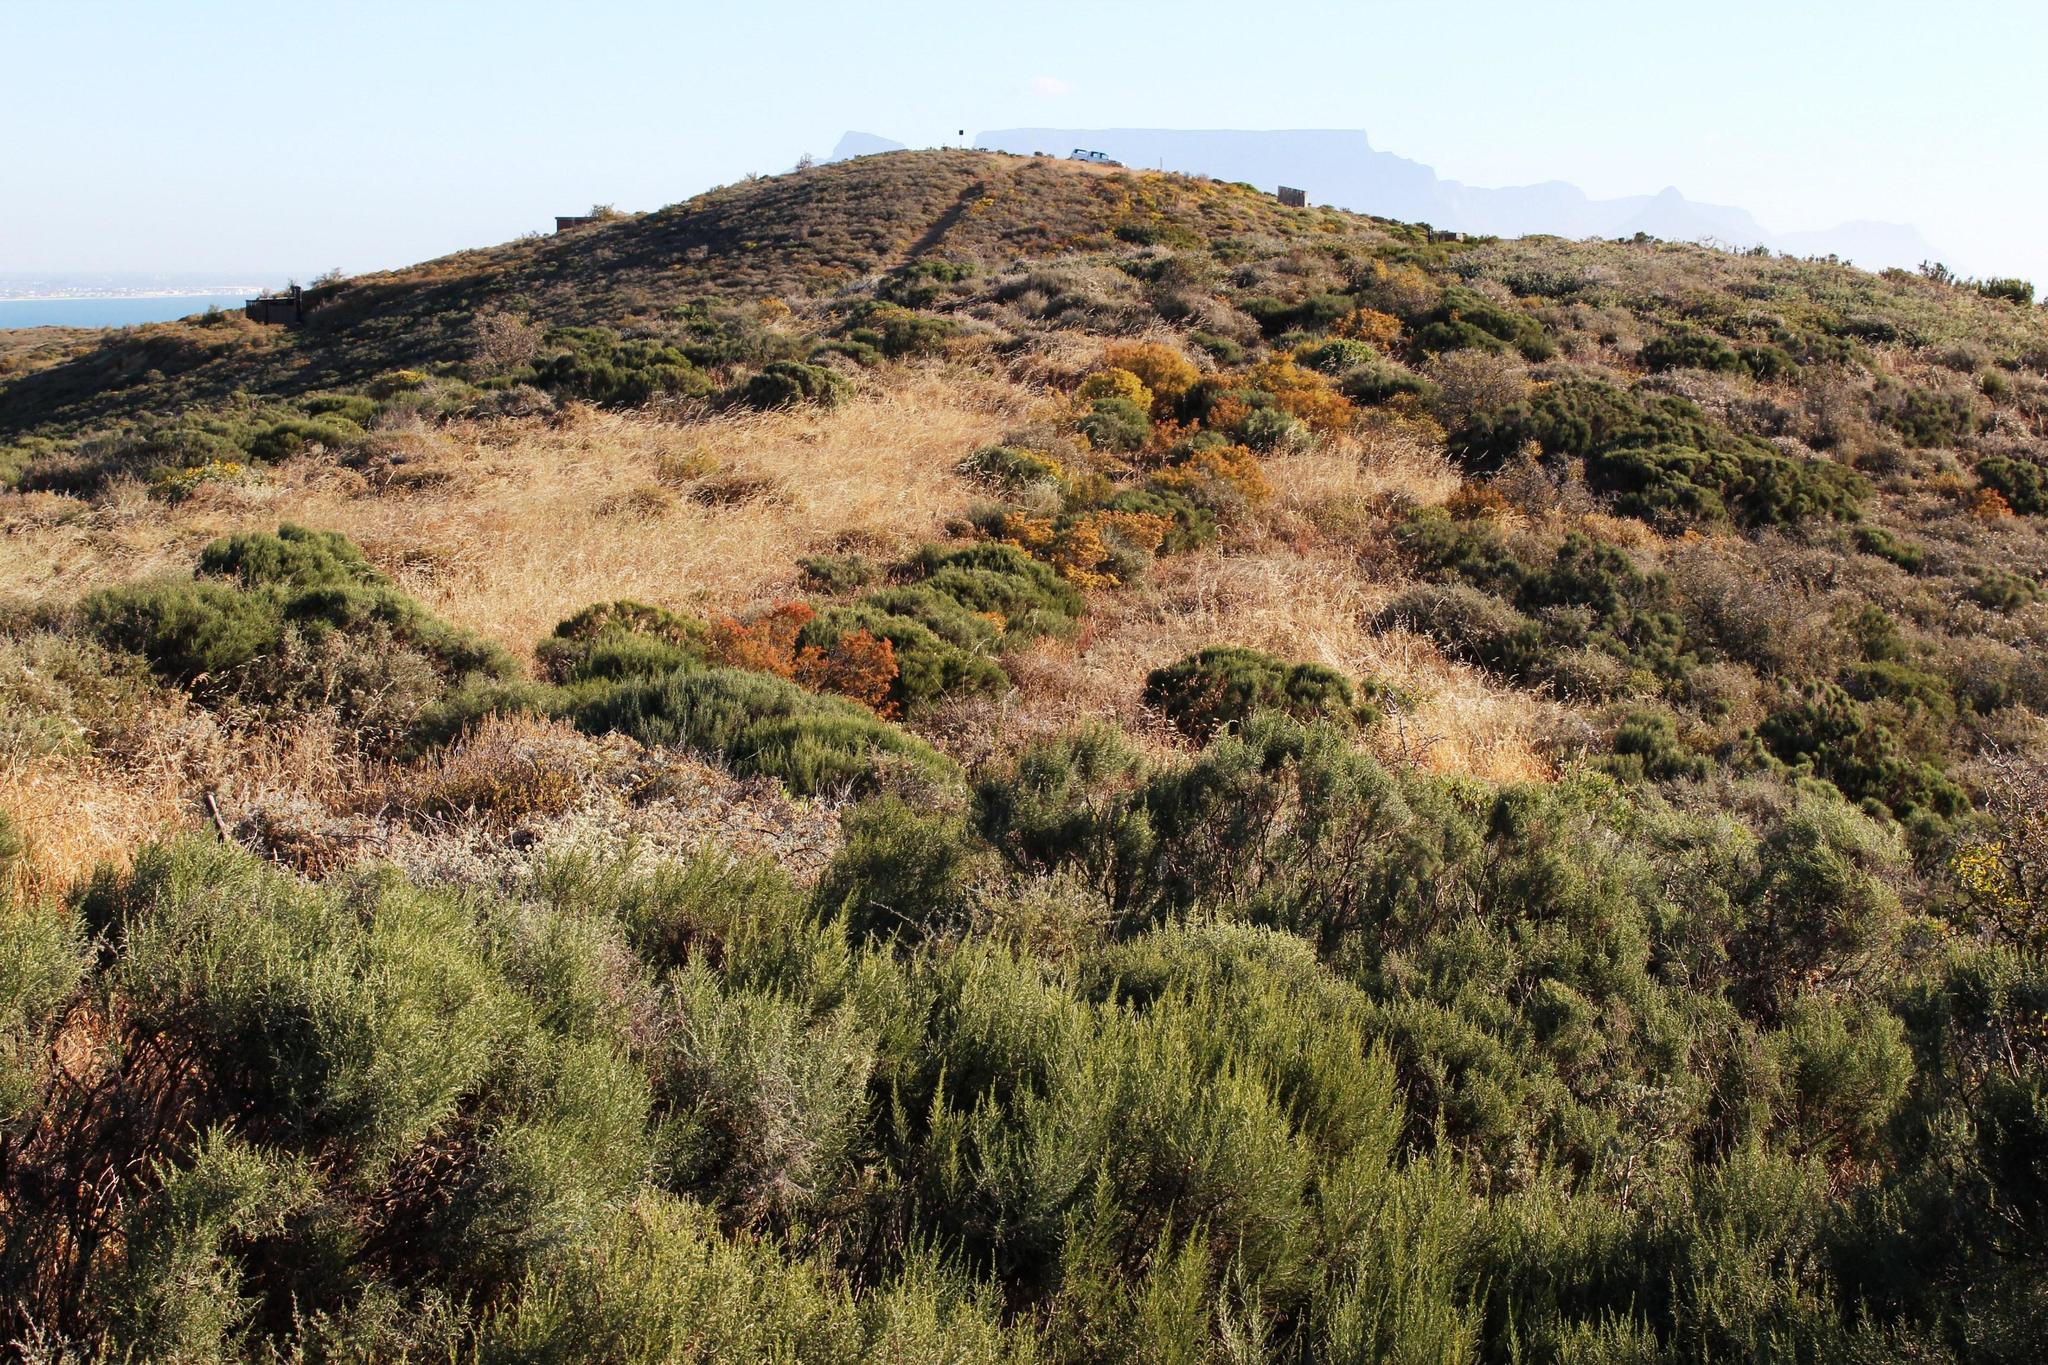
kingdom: Animalia
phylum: Arthropoda
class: Insecta
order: Blattodea
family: Hodotermitidae
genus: Microhodotermes
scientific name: Microhodotermes viator
